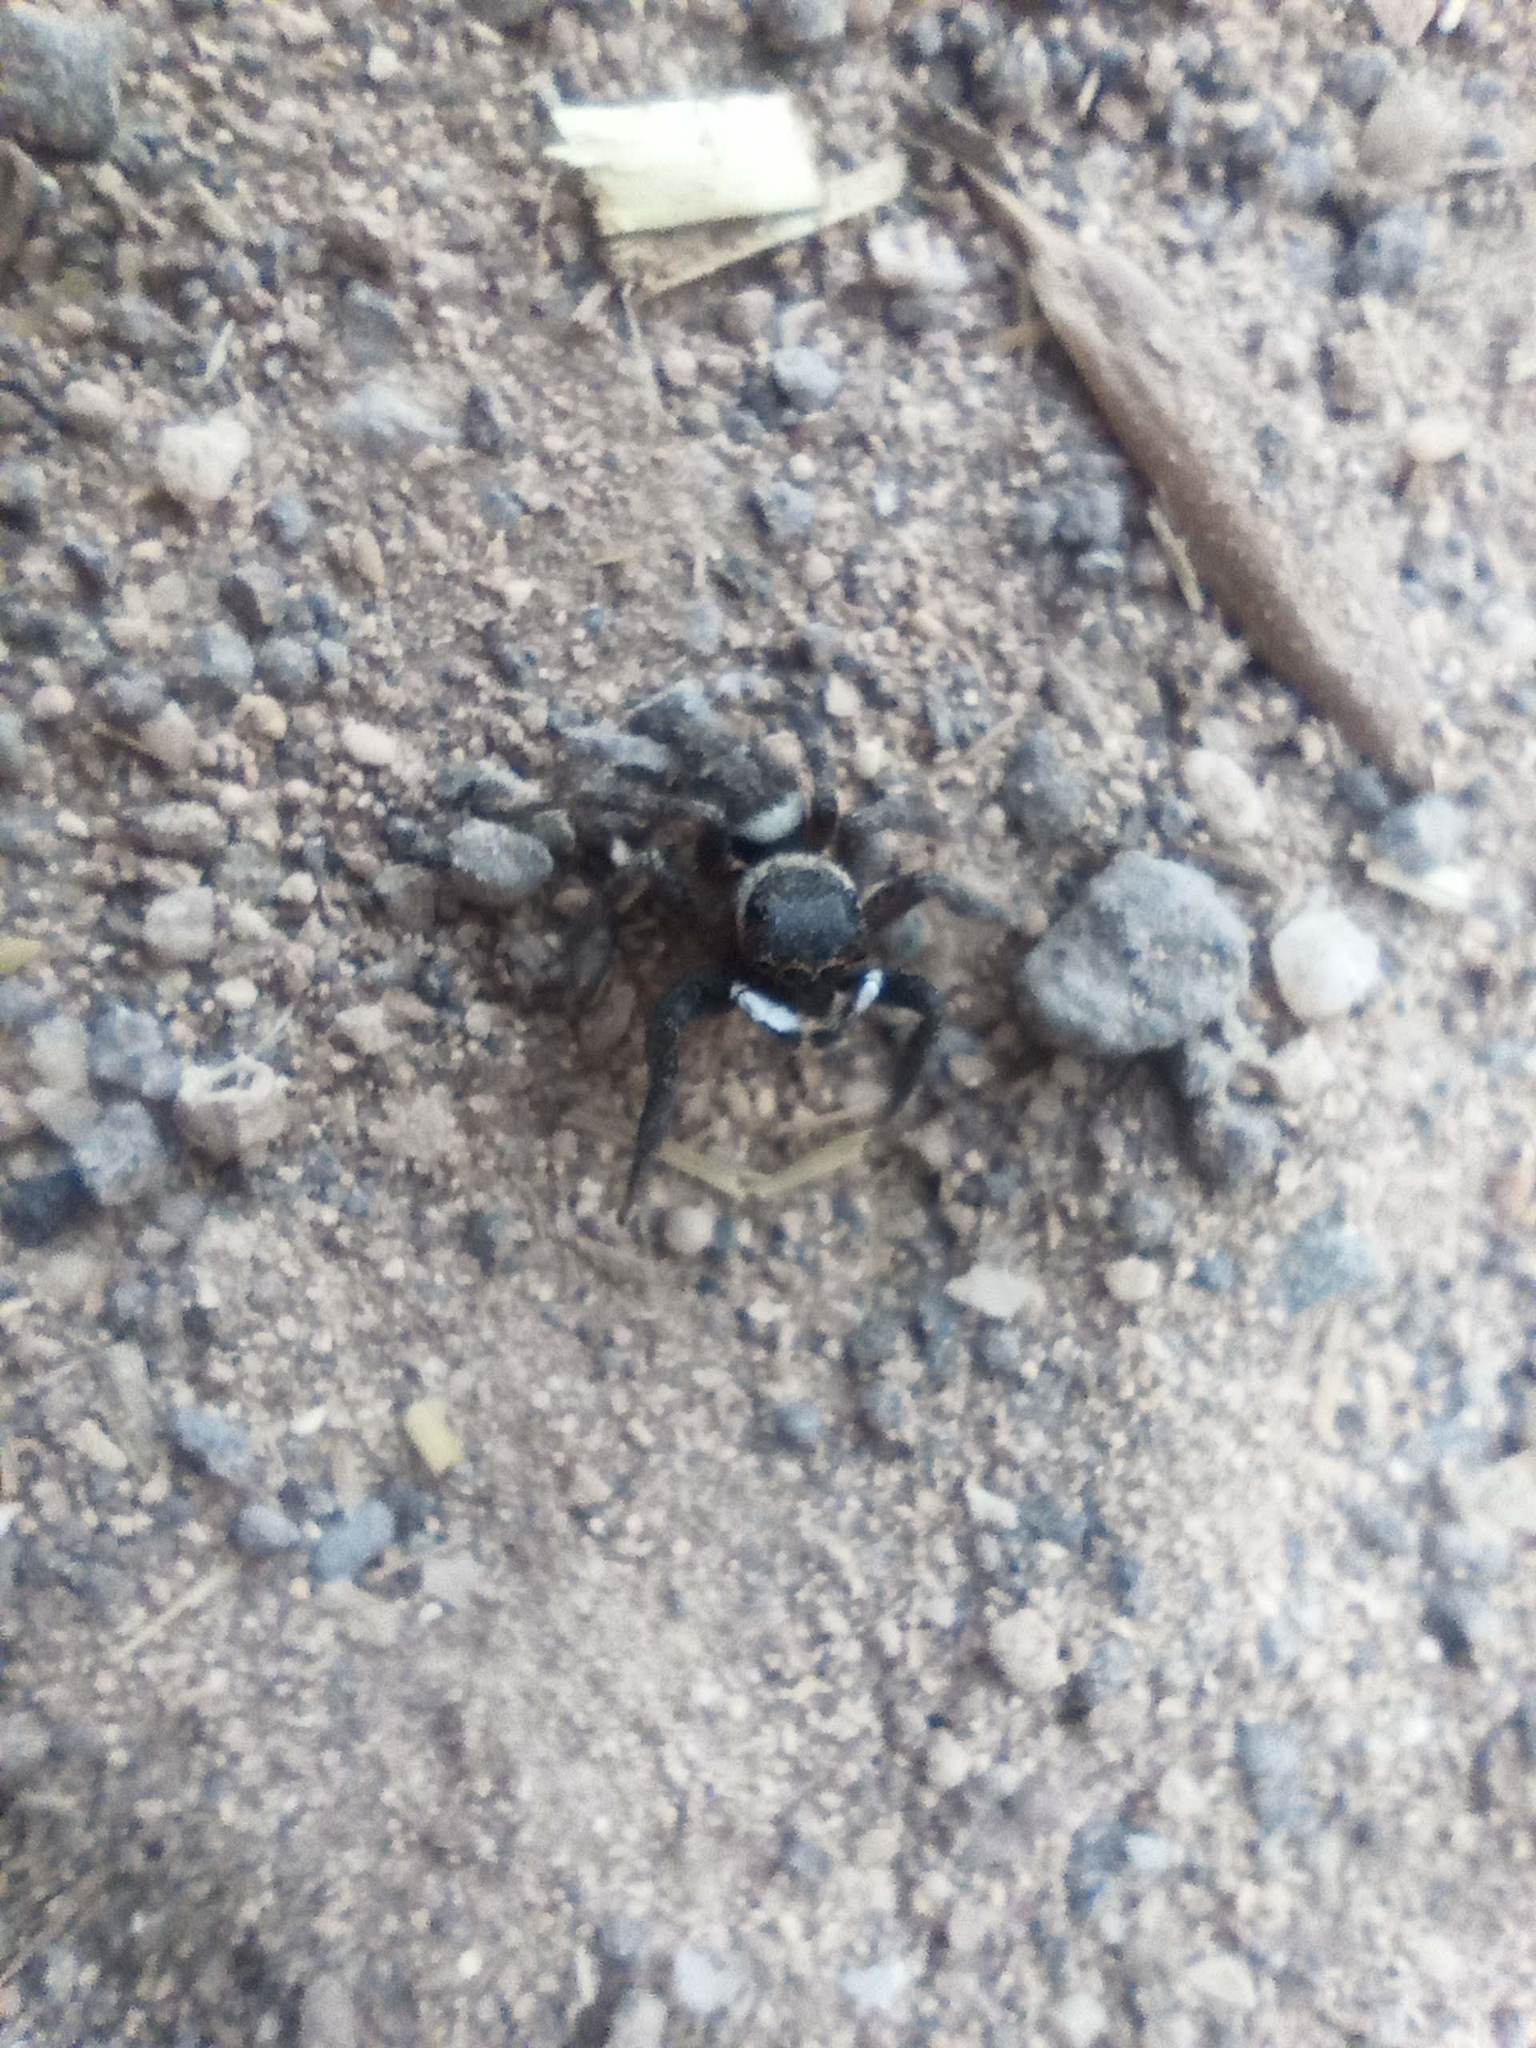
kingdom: Animalia
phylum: Arthropoda
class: Arachnida
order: Araneae
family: Salticidae
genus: Hasarius
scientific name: Hasarius adansoni
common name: Jumping spider
